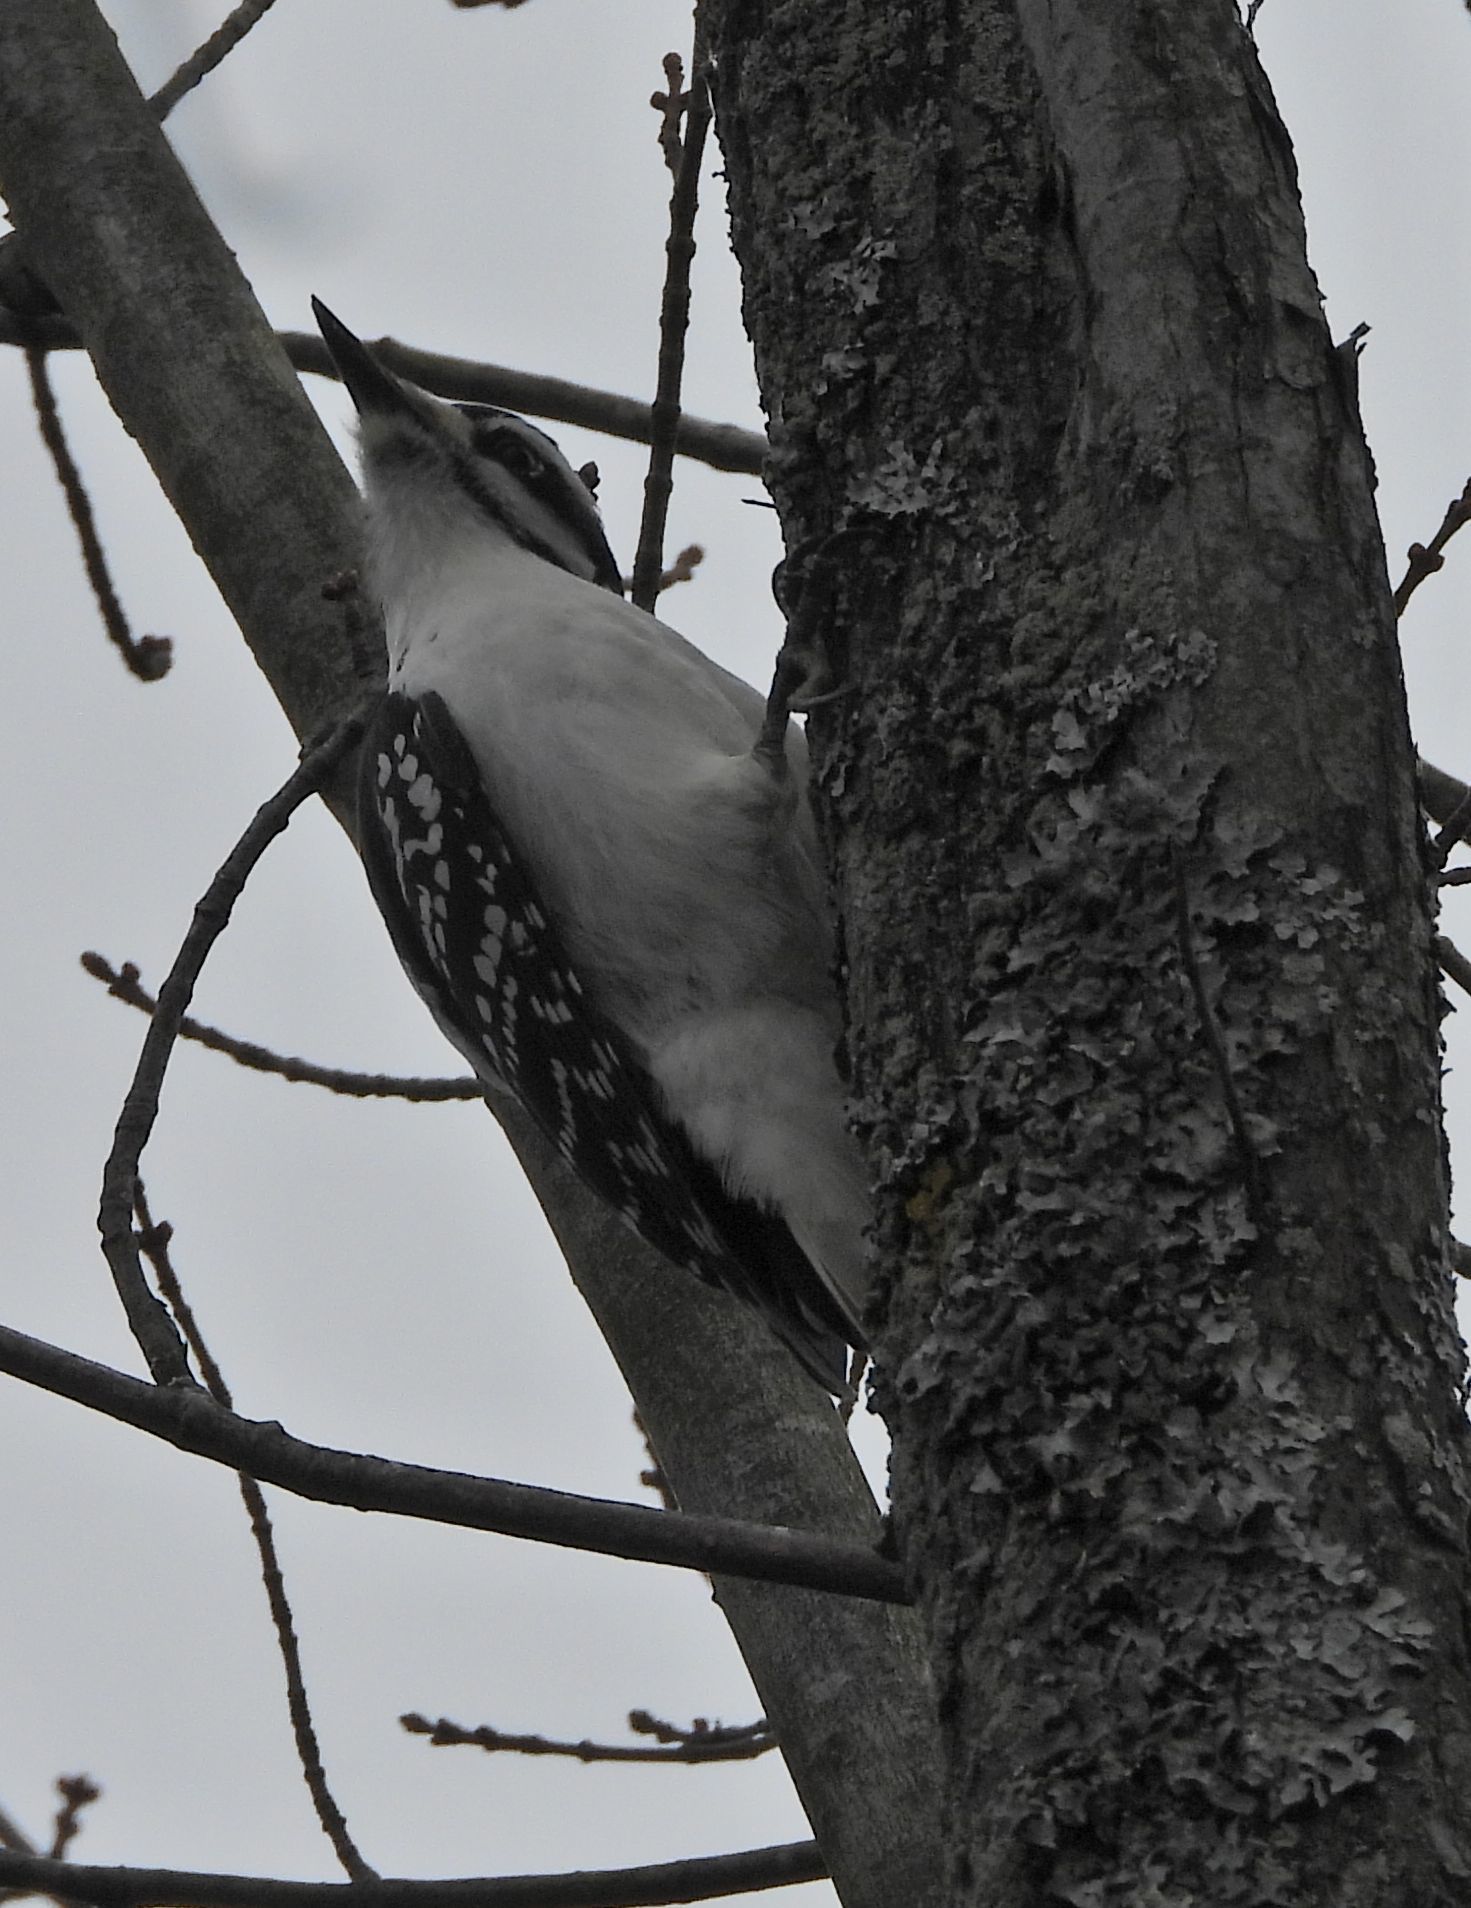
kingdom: Animalia
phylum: Chordata
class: Aves
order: Piciformes
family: Picidae
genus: Leuconotopicus
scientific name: Leuconotopicus villosus
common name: Hairy woodpecker
